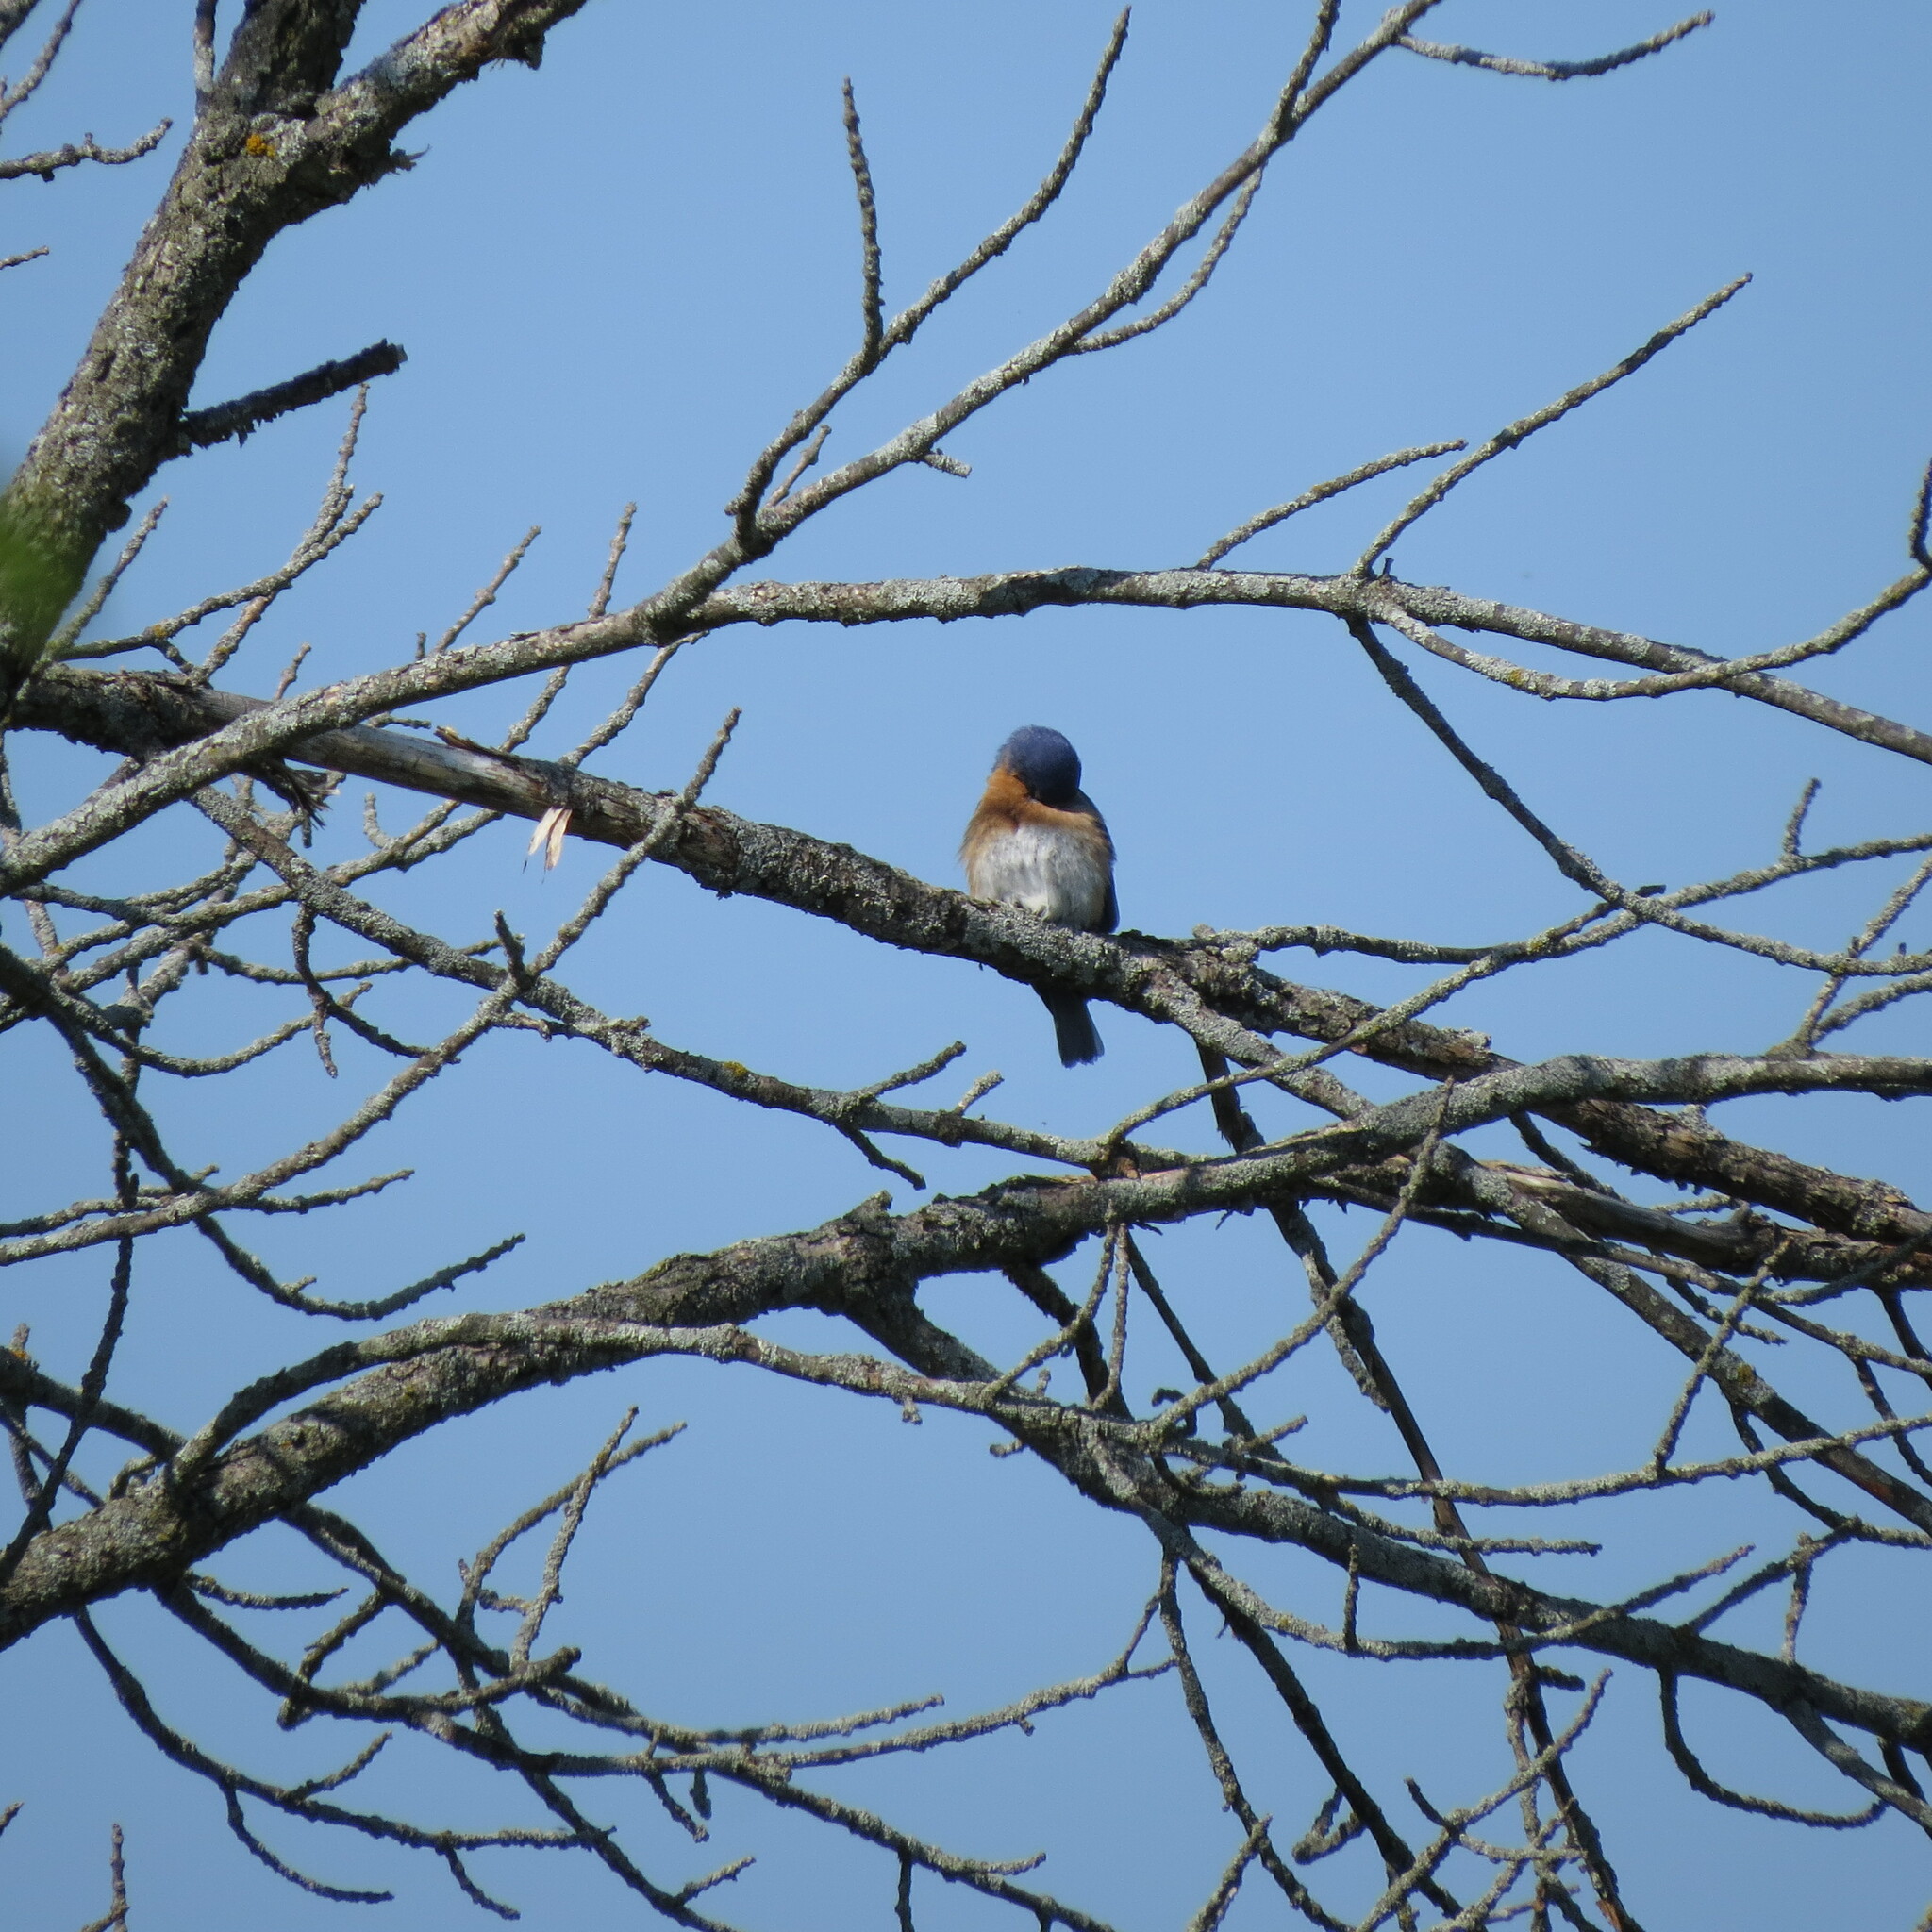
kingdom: Animalia
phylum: Chordata
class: Aves
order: Passeriformes
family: Turdidae
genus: Sialia
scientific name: Sialia sialis
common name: Eastern bluebird
